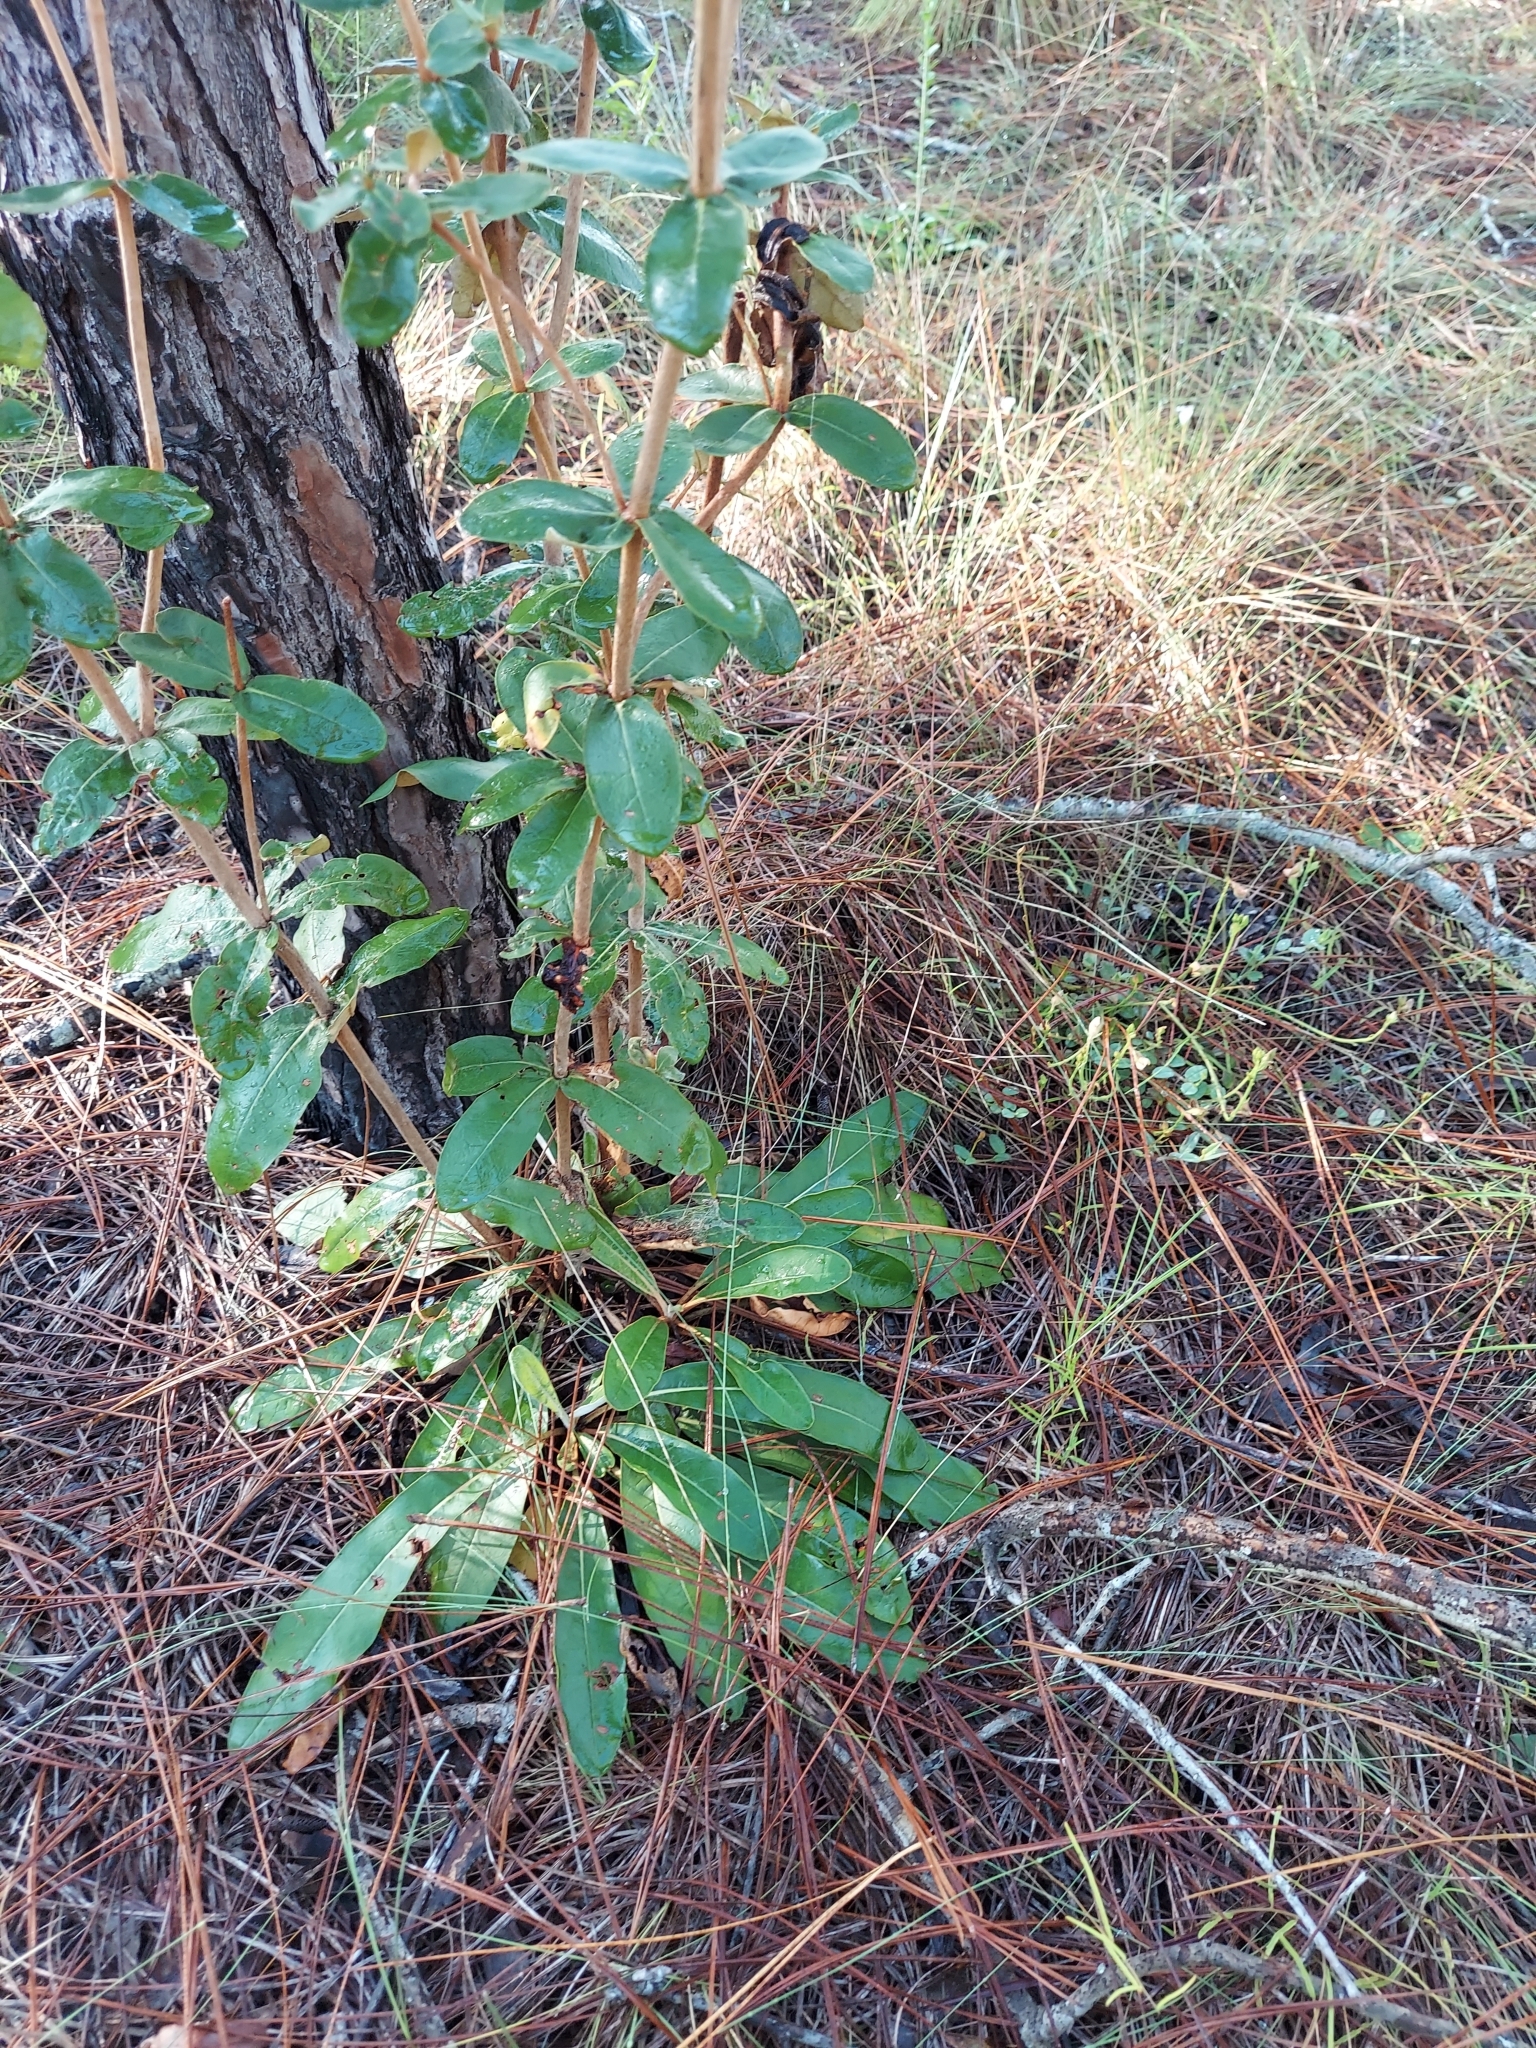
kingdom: Plantae
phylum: Tracheophyta
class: Magnoliopsida
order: Caryophyllales
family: Polygonaceae
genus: Eriogonum
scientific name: Eriogonum tomentosum
